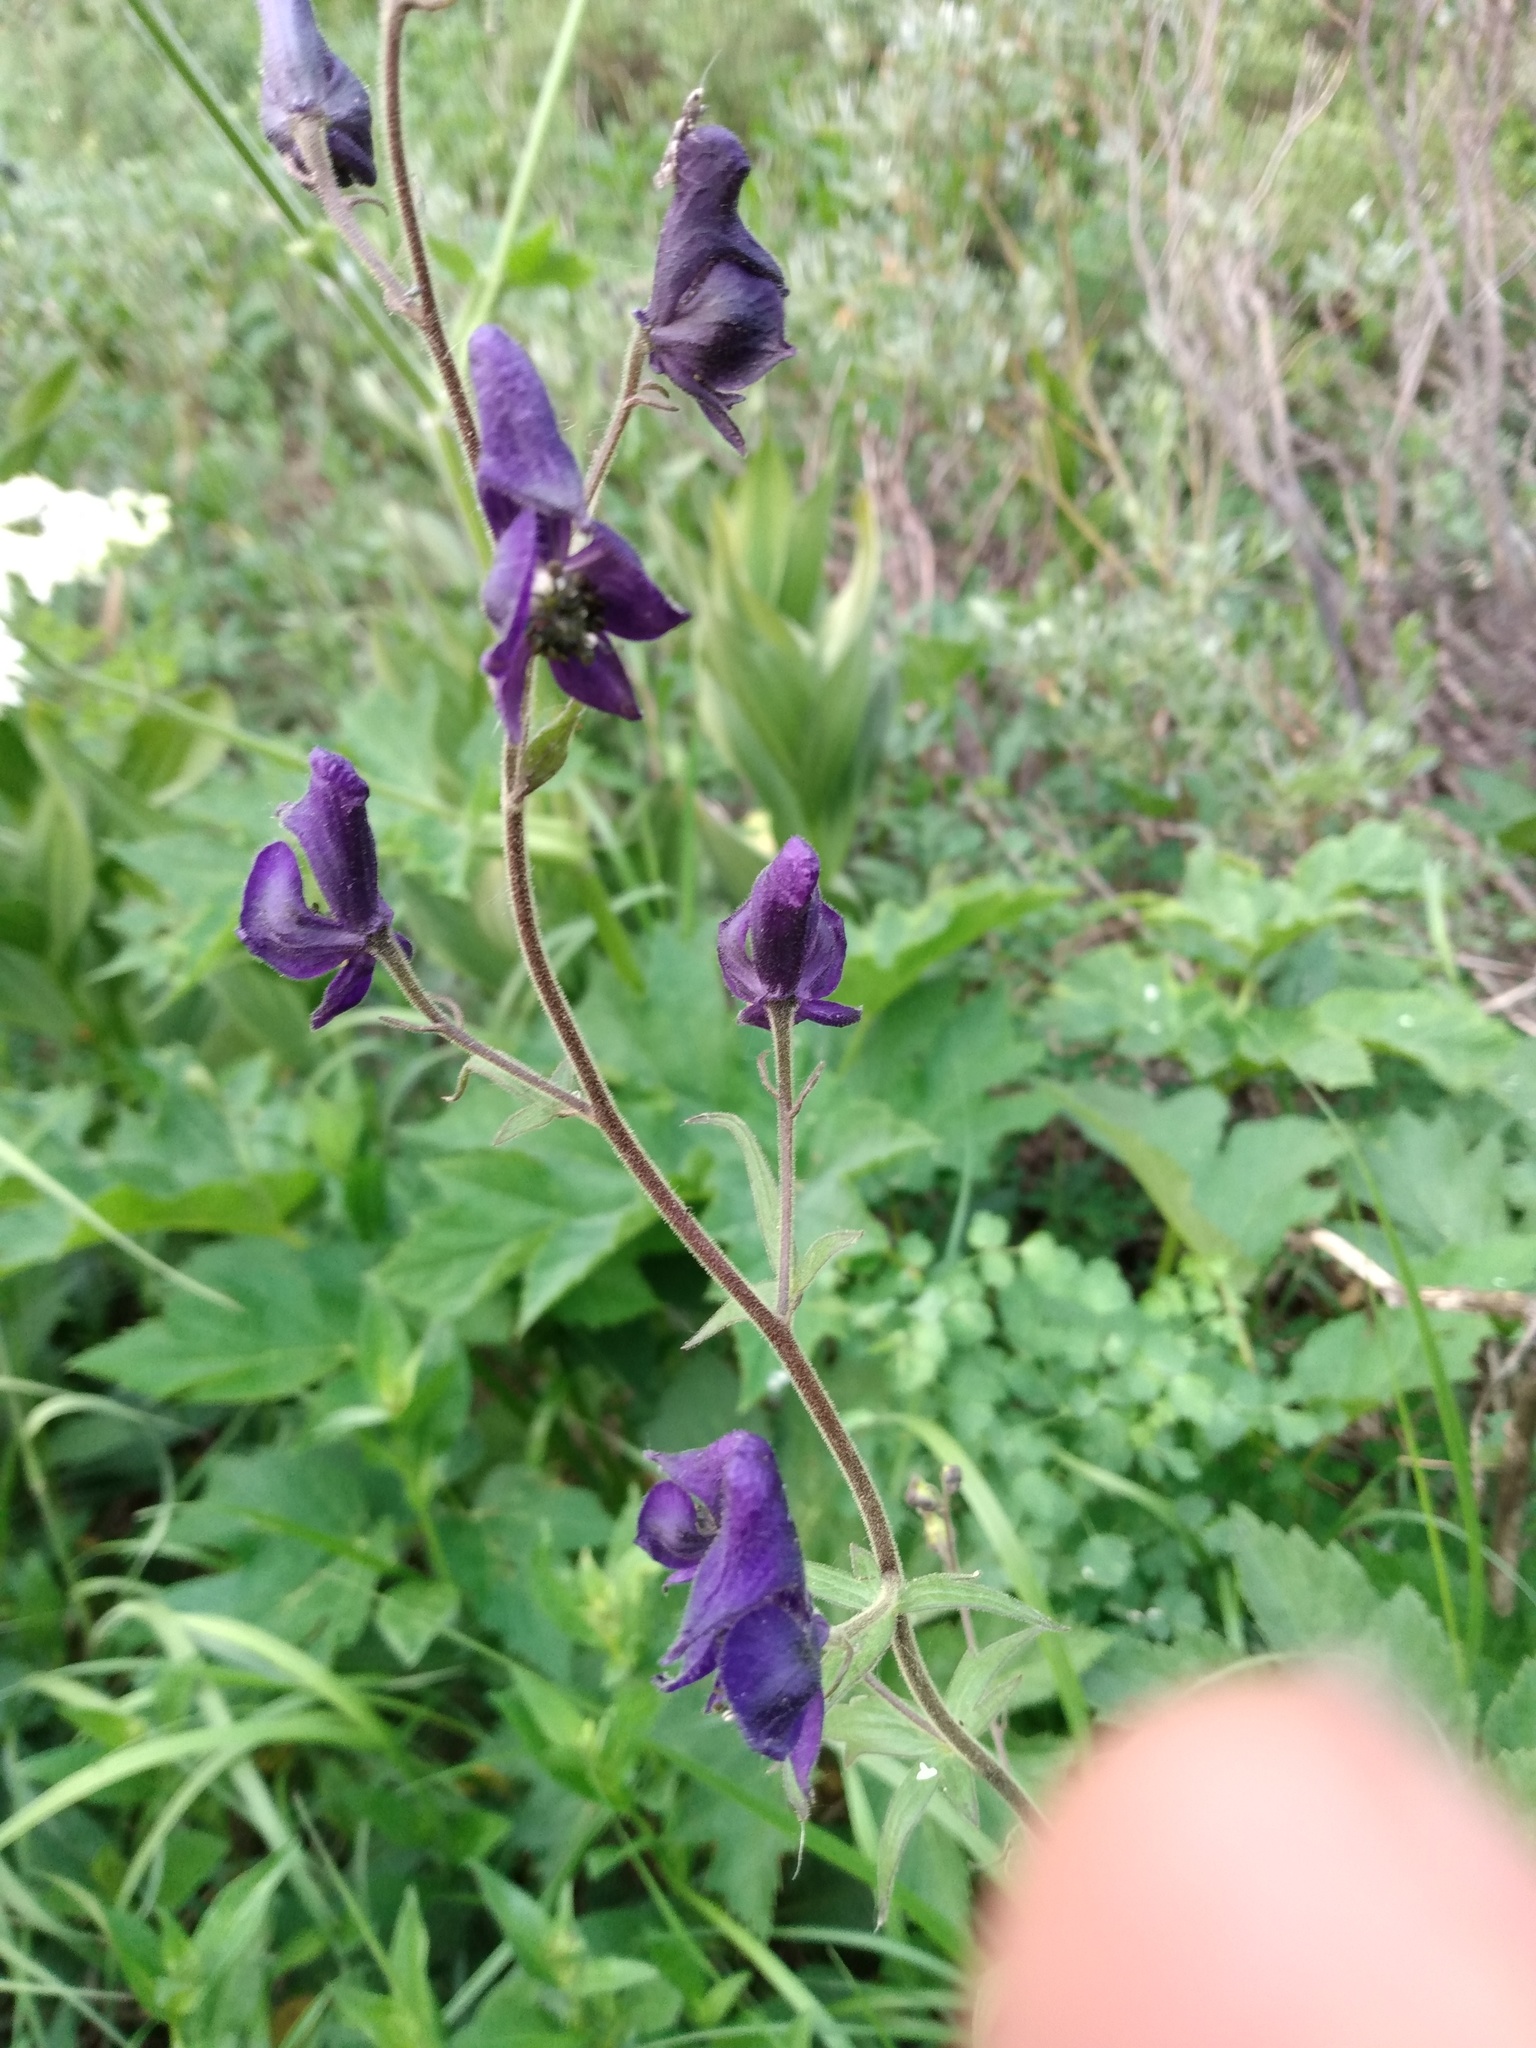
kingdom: Plantae
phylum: Tracheophyta
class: Magnoliopsida
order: Ranunculales
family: Ranunculaceae
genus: Aconitum
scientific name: Aconitum columbianum
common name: Columbia aconite
